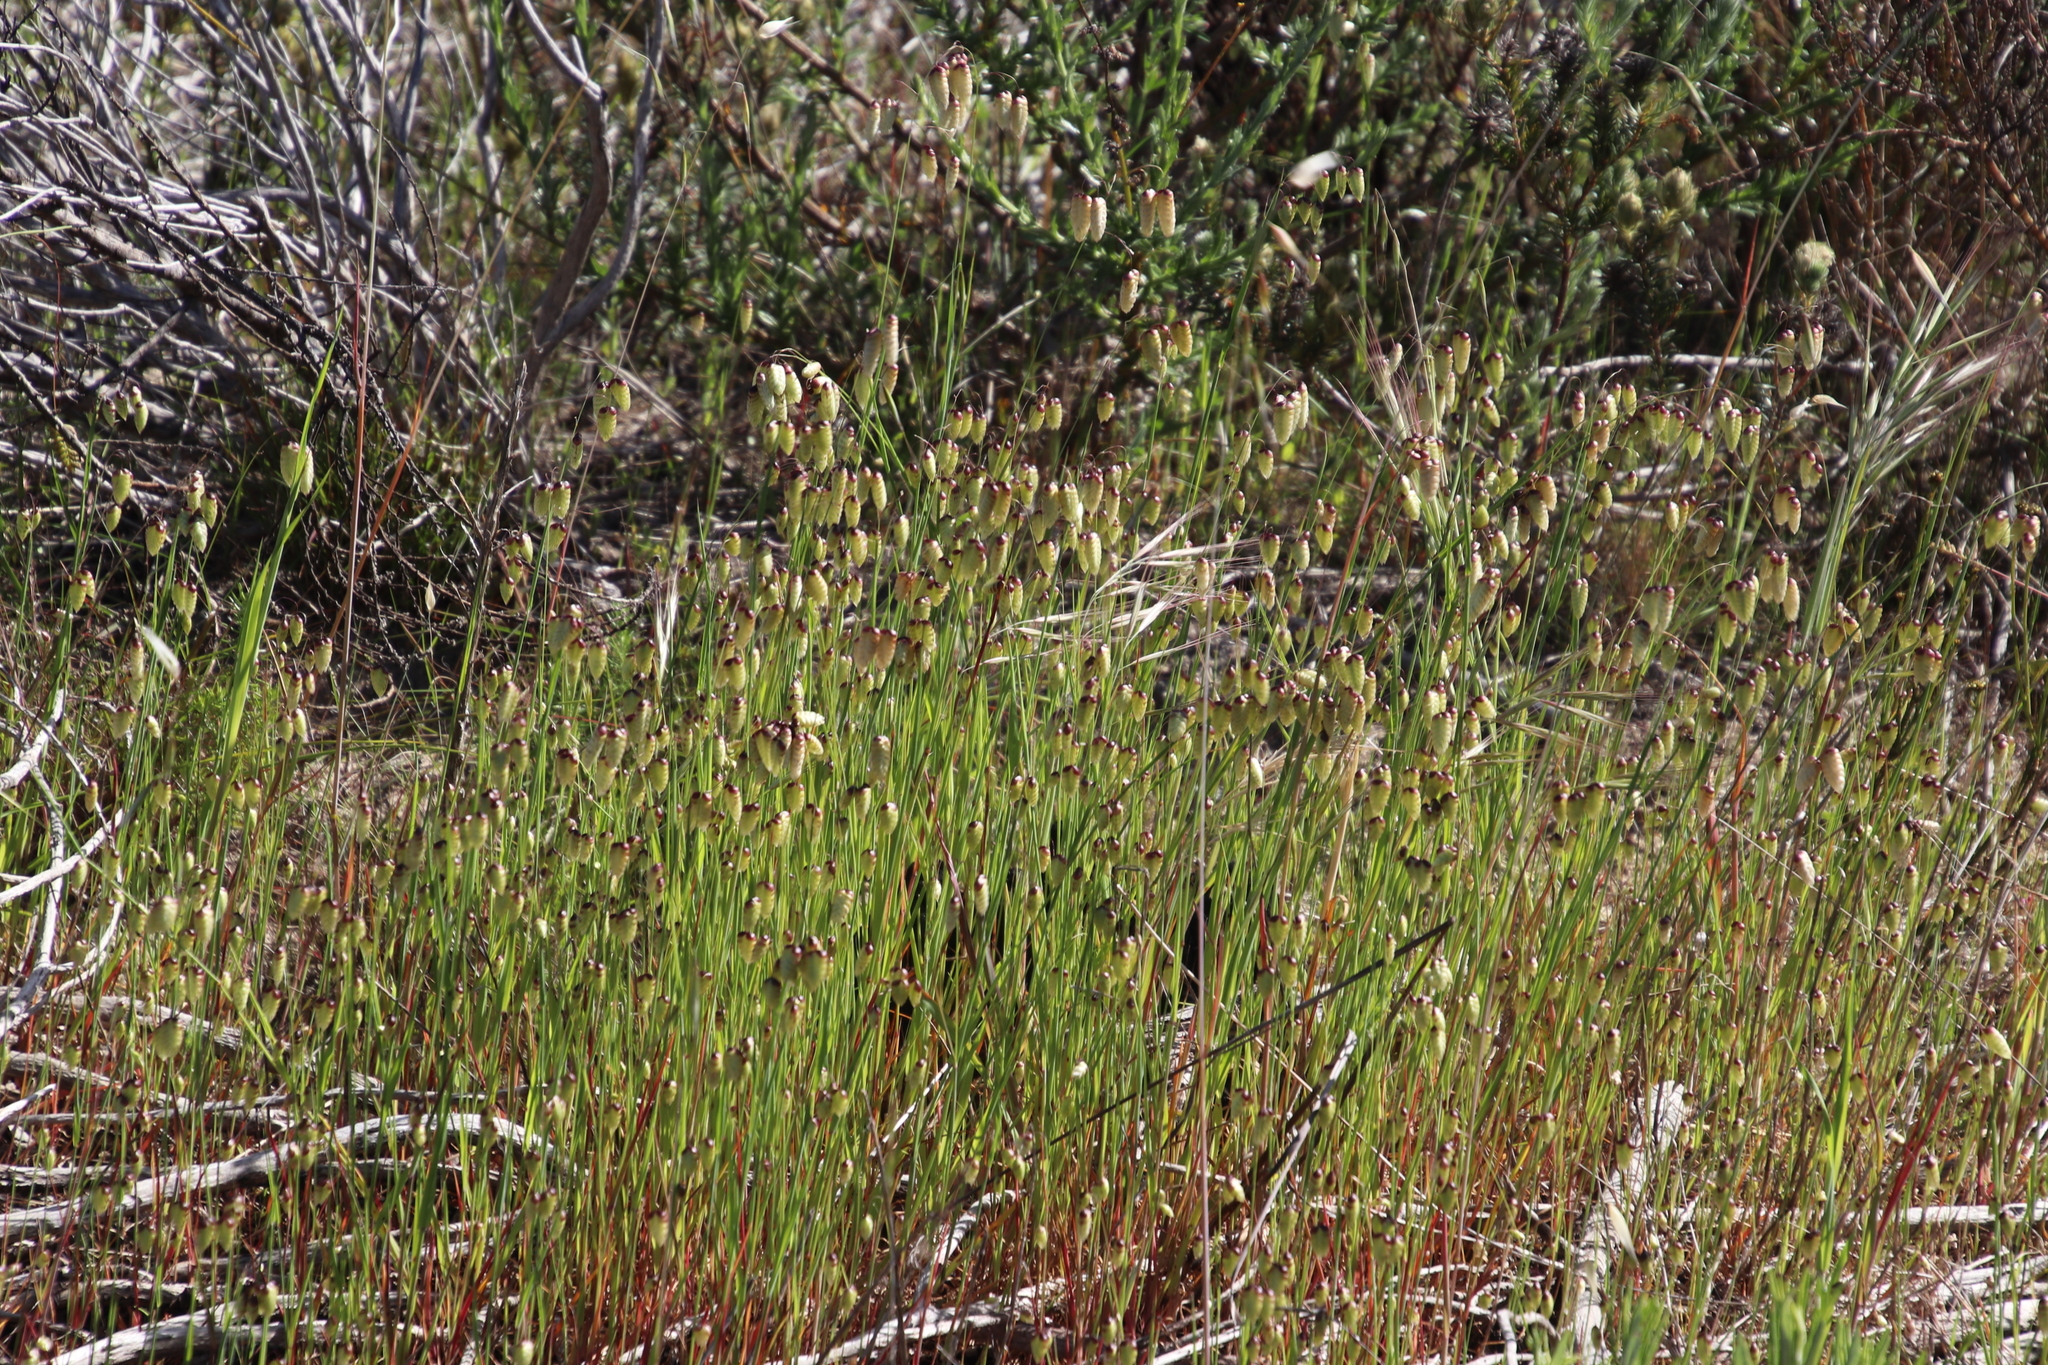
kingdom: Plantae
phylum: Tracheophyta
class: Liliopsida
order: Poales
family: Poaceae
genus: Briza
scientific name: Briza maxima
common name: Big quakinggrass
